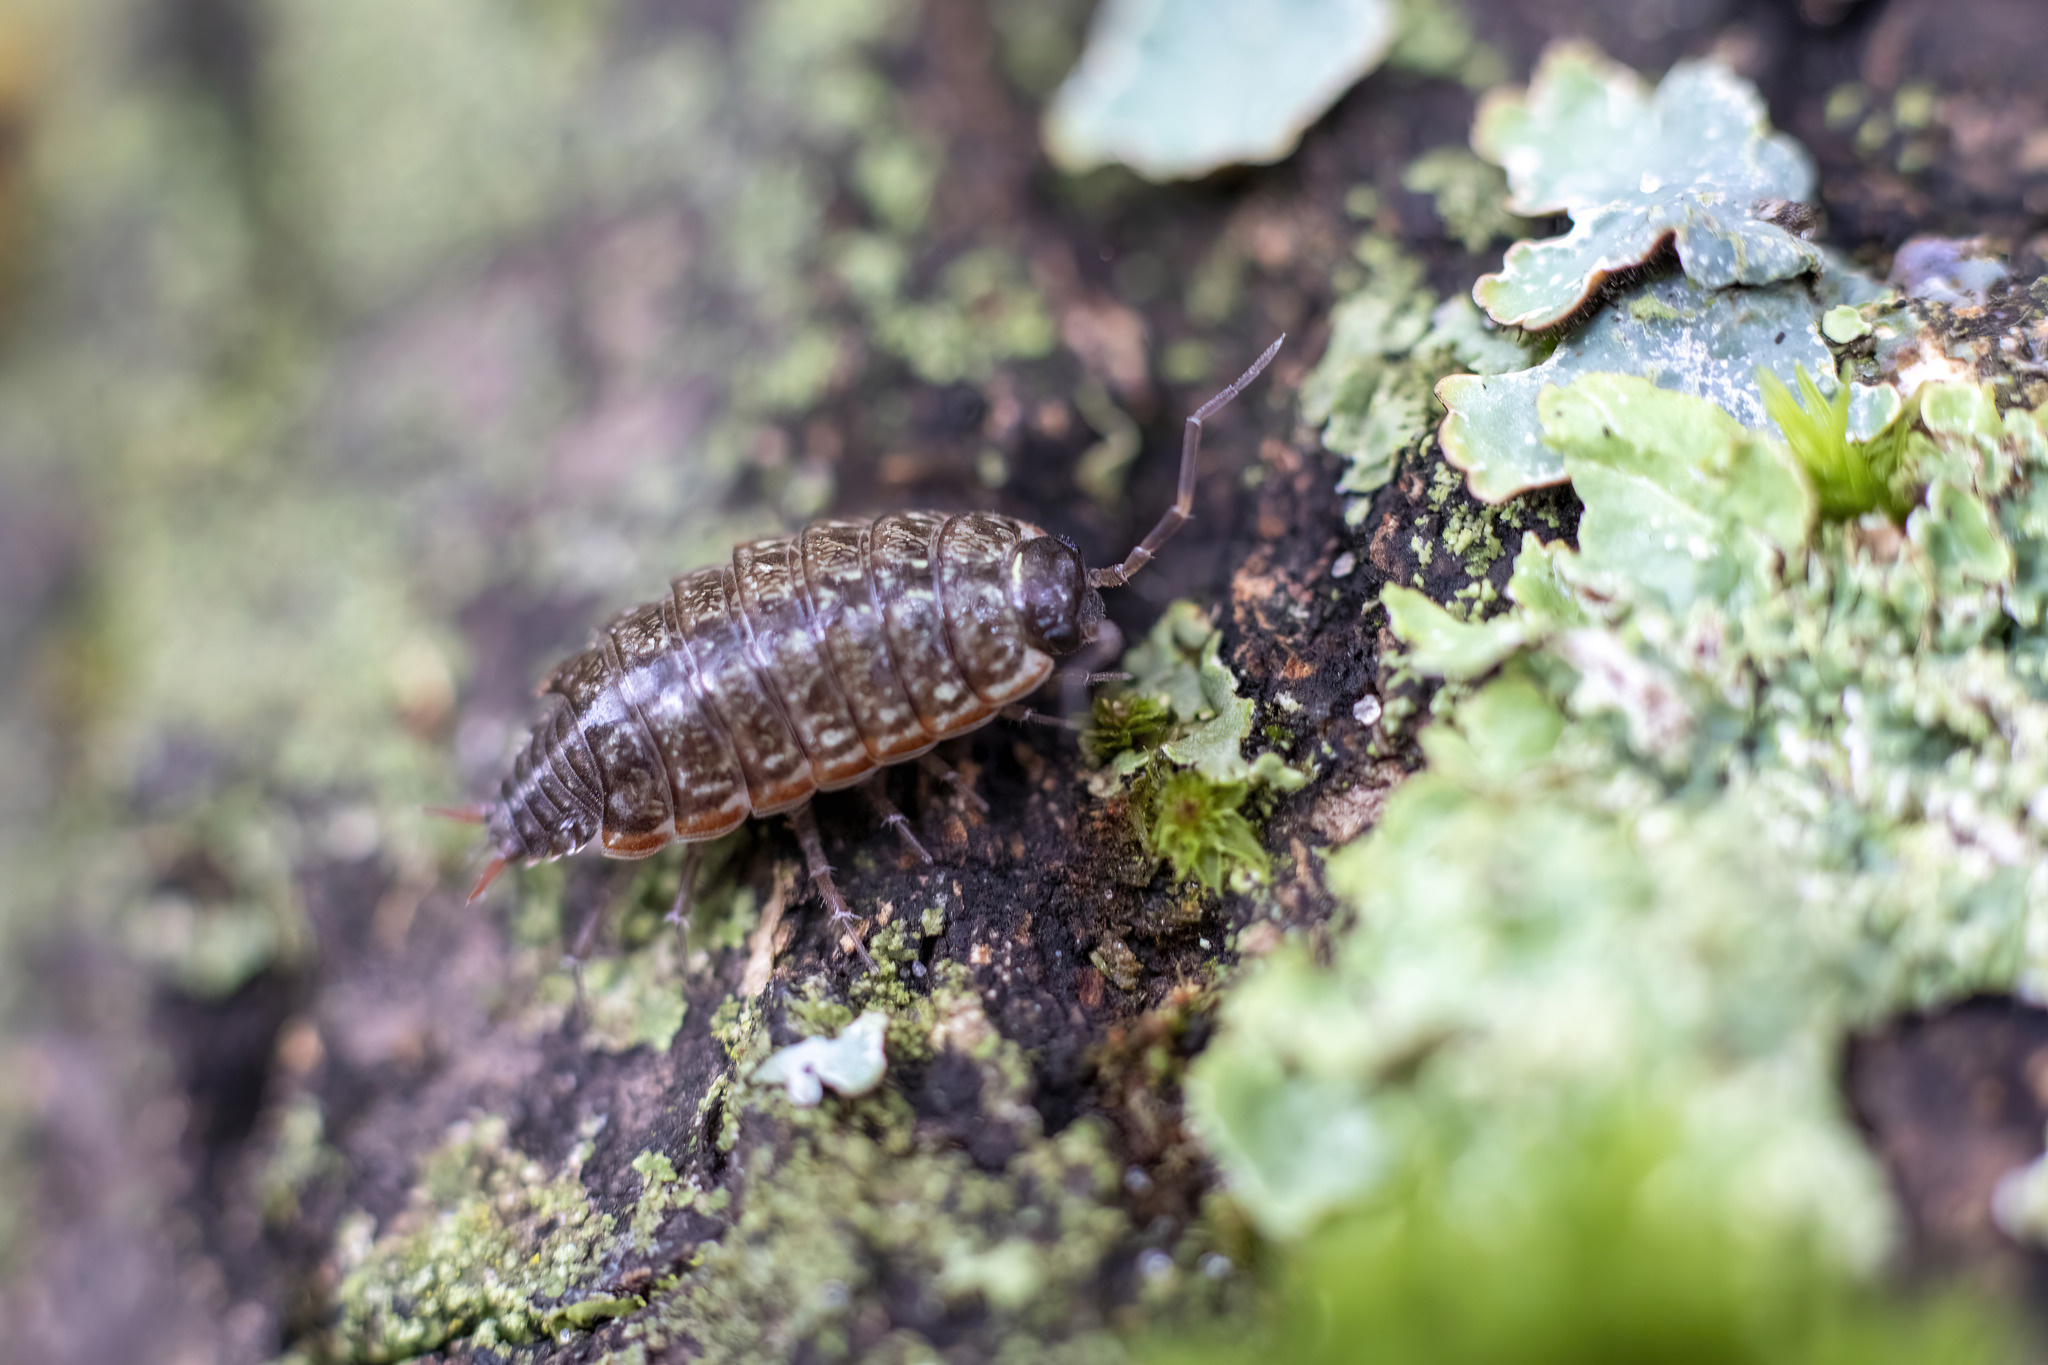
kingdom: Animalia
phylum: Arthropoda
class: Malacostraca
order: Isopoda
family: Philosciidae
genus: Philoscia
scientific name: Philoscia muscorum
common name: Common striped woodlouse
